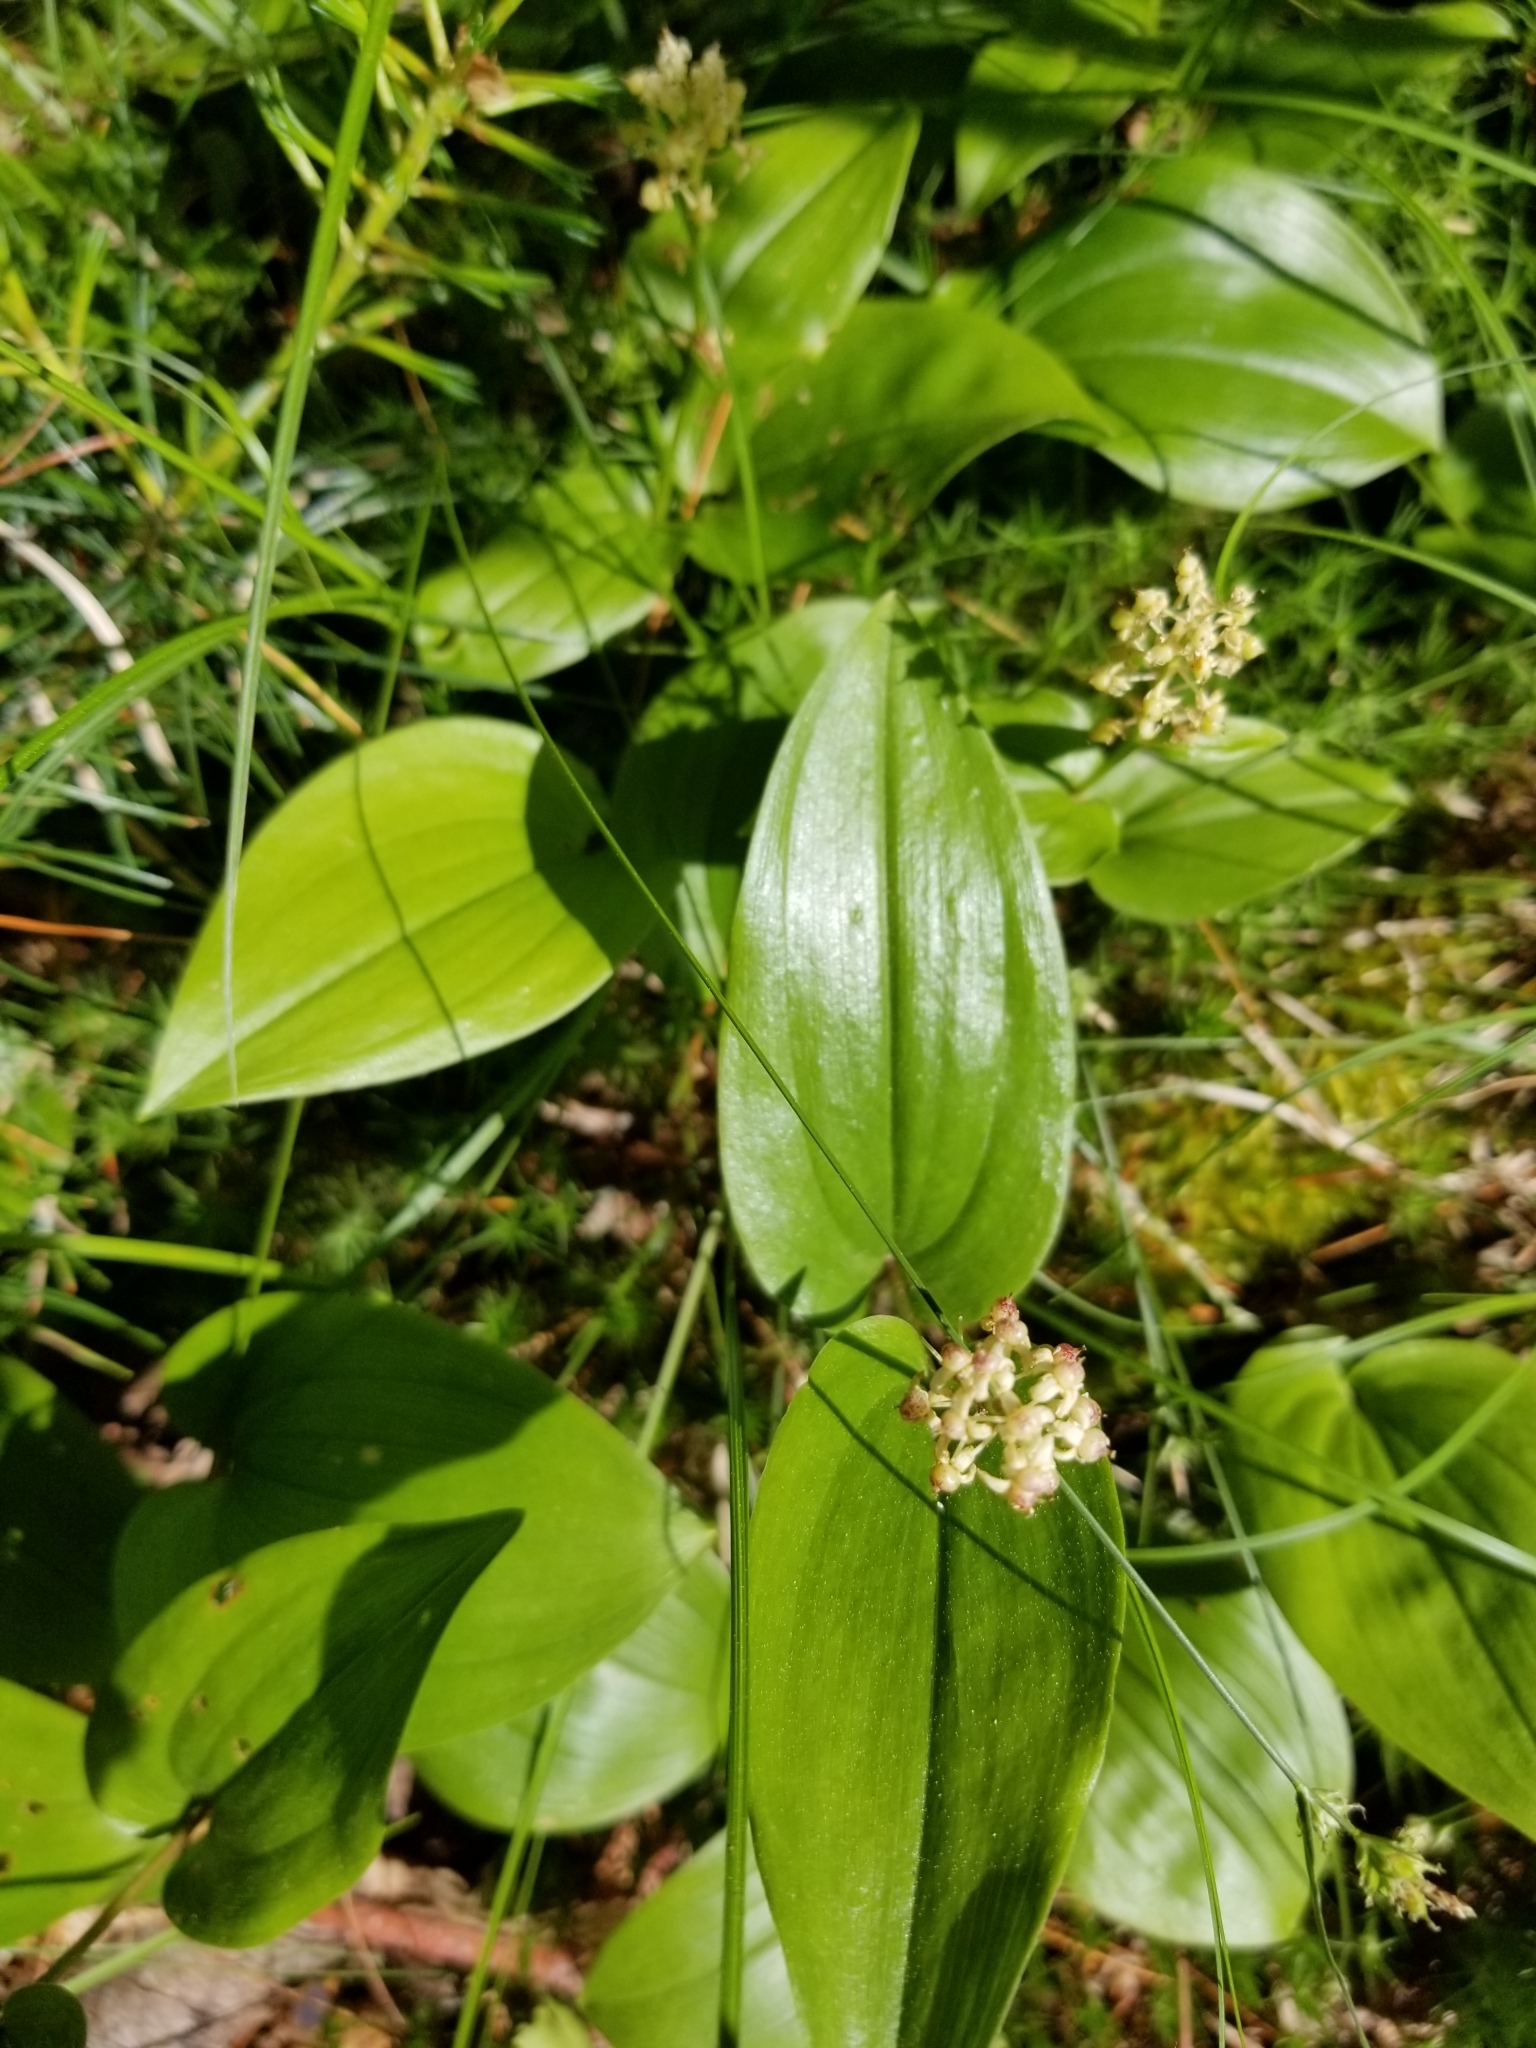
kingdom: Plantae
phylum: Tracheophyta
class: Liliopsida
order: Asparagales
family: Asparagaceae
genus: Maianthemum
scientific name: Maianthemum canadense
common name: False lily-of-the-valley
